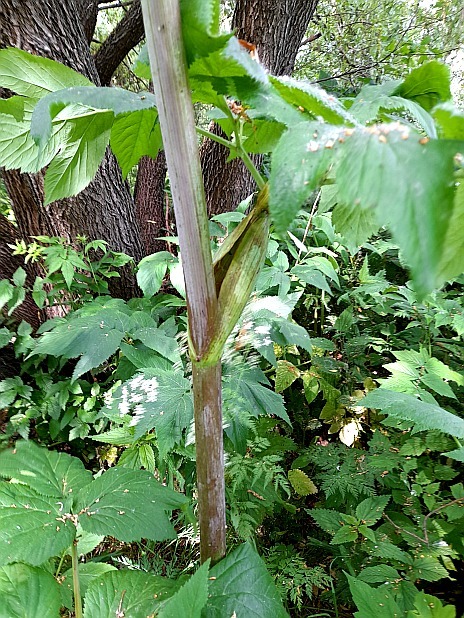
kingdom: Plantae
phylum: Tracheophyta
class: Magnoliopsida
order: Apiales
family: Apiaceae
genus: Angelica
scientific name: Angelica archangelica
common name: Garden angelica
